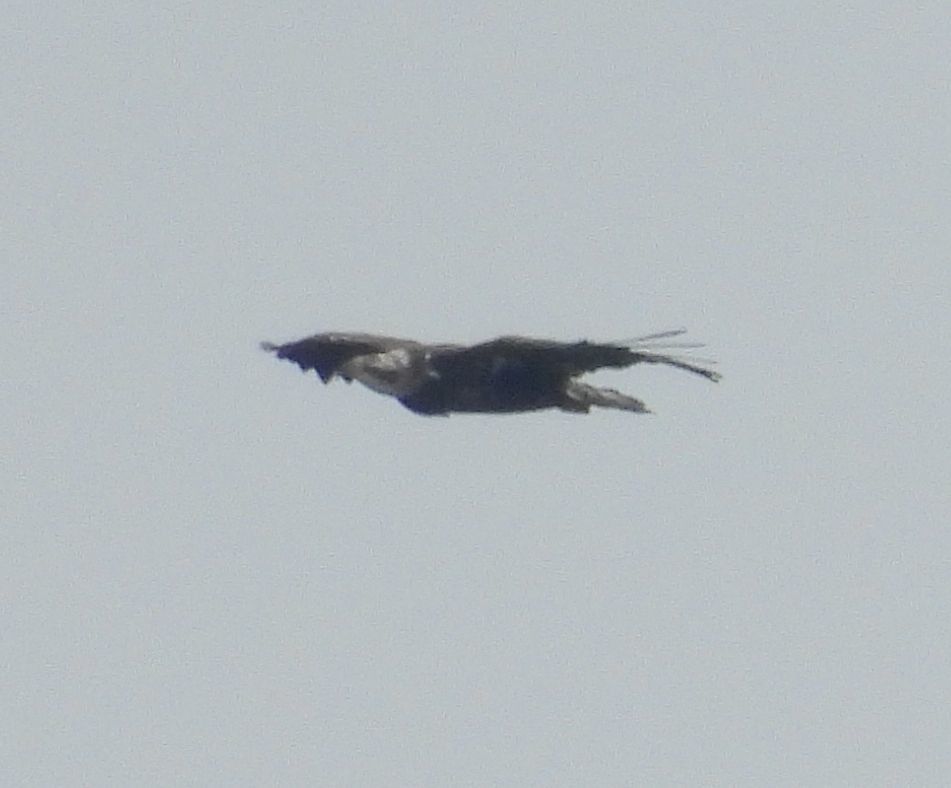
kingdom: Animalia
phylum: Chordata
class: Aves
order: Accipitriformes
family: Accipitridae
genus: Haliaeetus
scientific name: Haliaeetus leucocephalus
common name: Bald eagle
